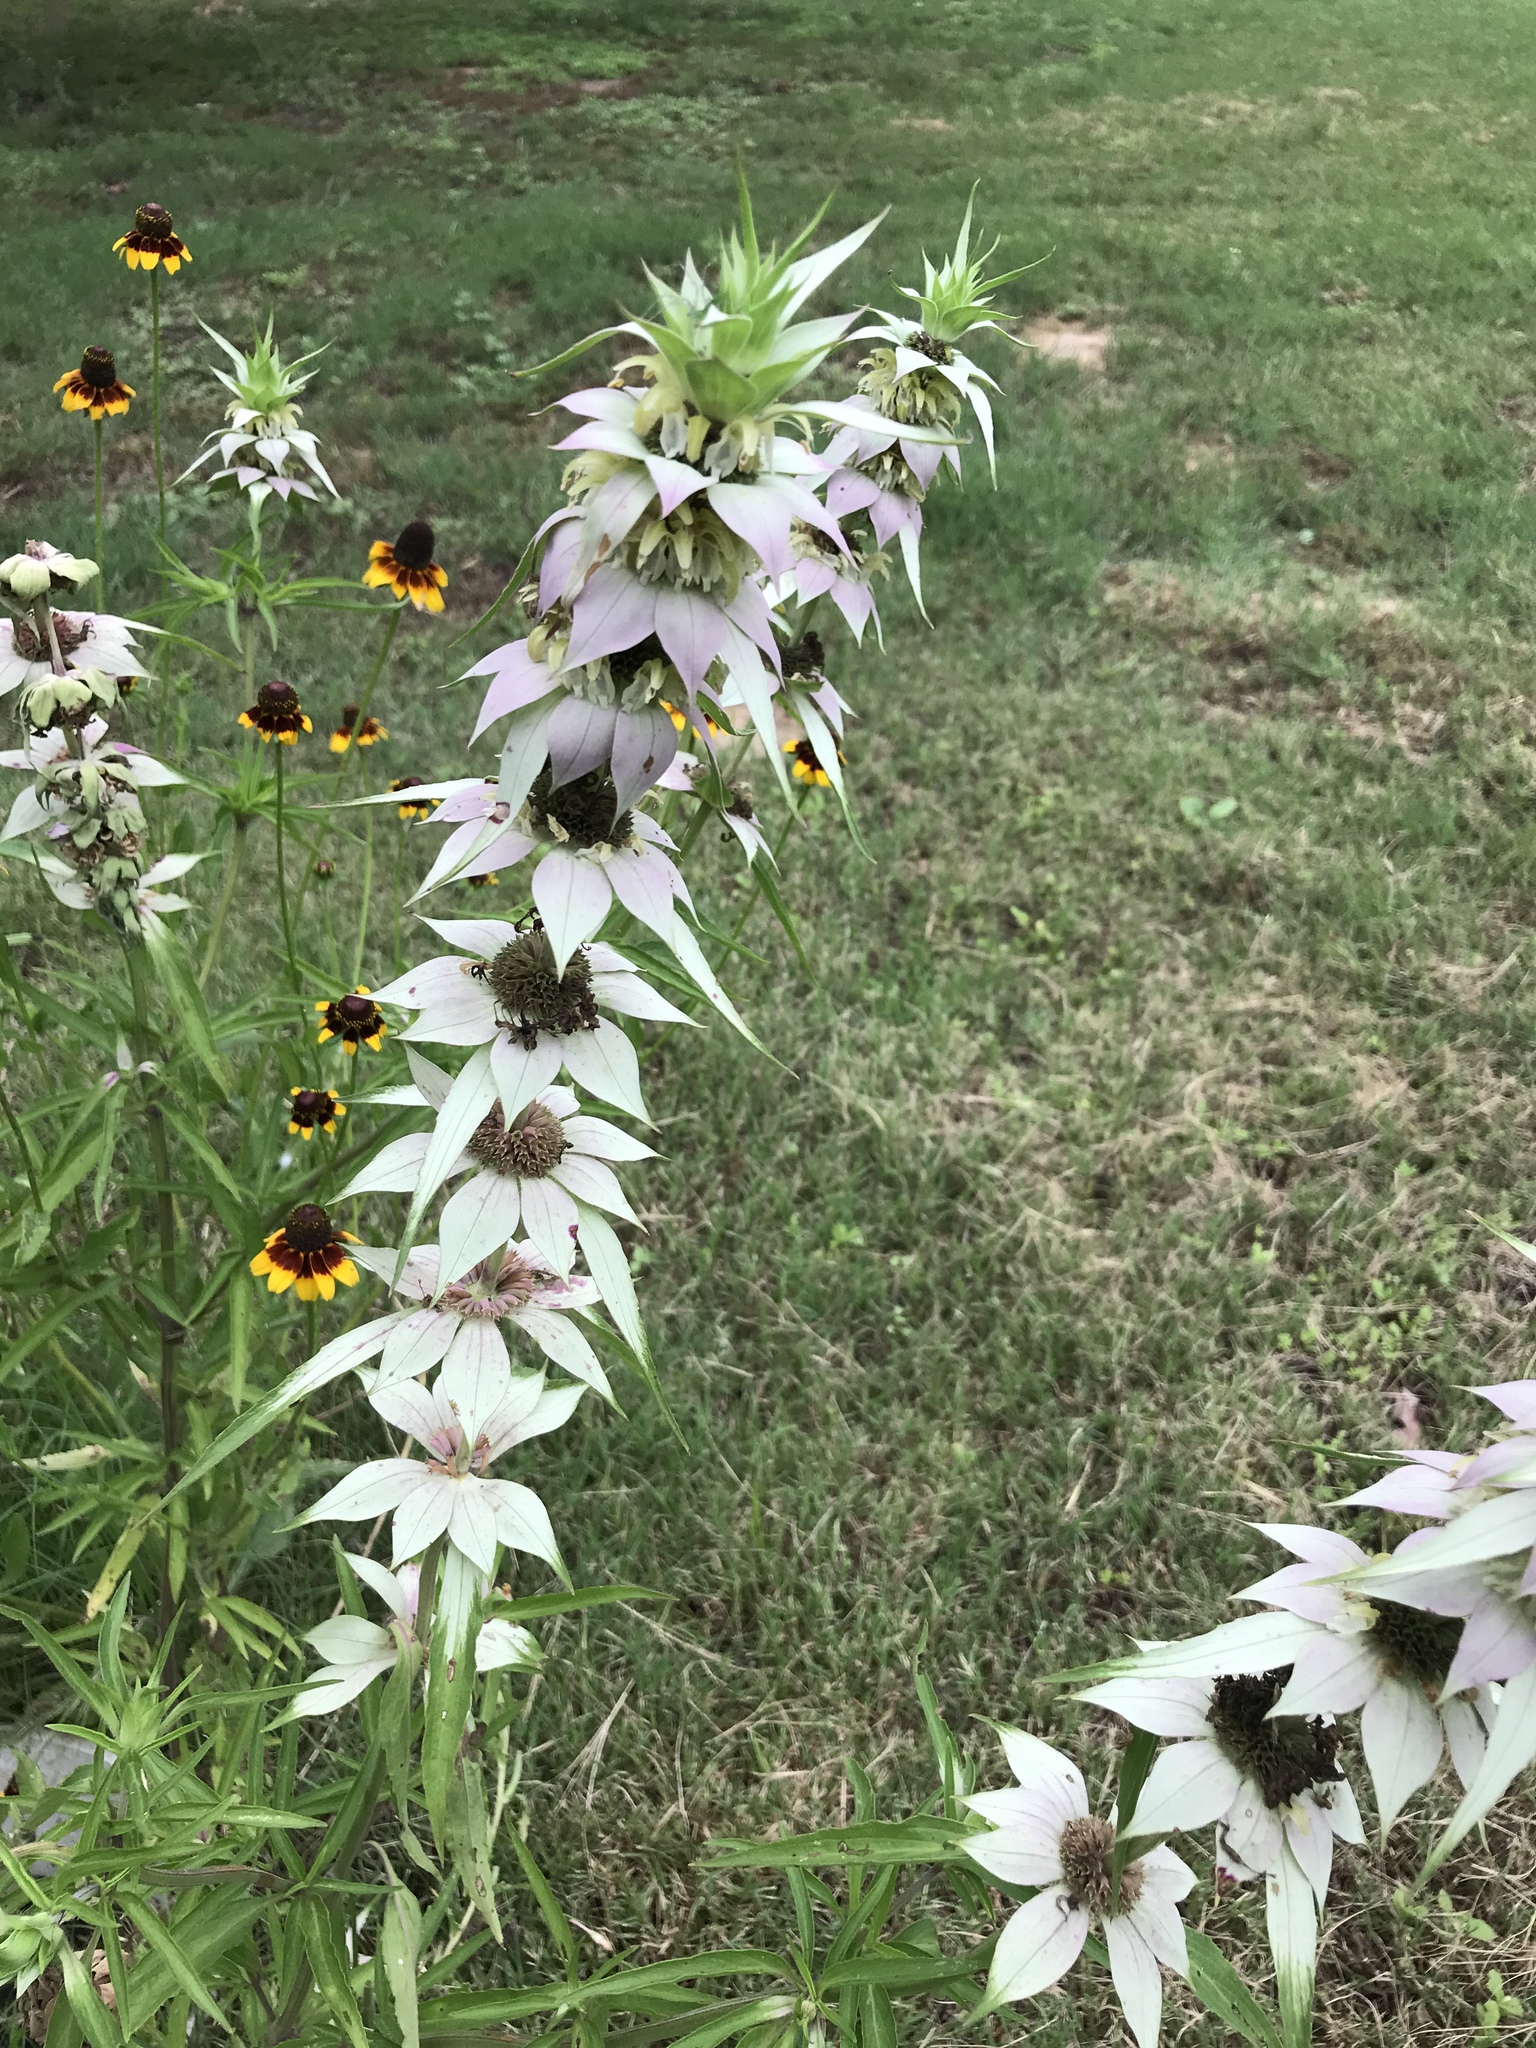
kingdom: Plantae
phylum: Tracheophyta
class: Magnoliopsida
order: Lamiales
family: Lamiaceae
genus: Monarda
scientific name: Monarda punctata
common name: Dotted monarda
